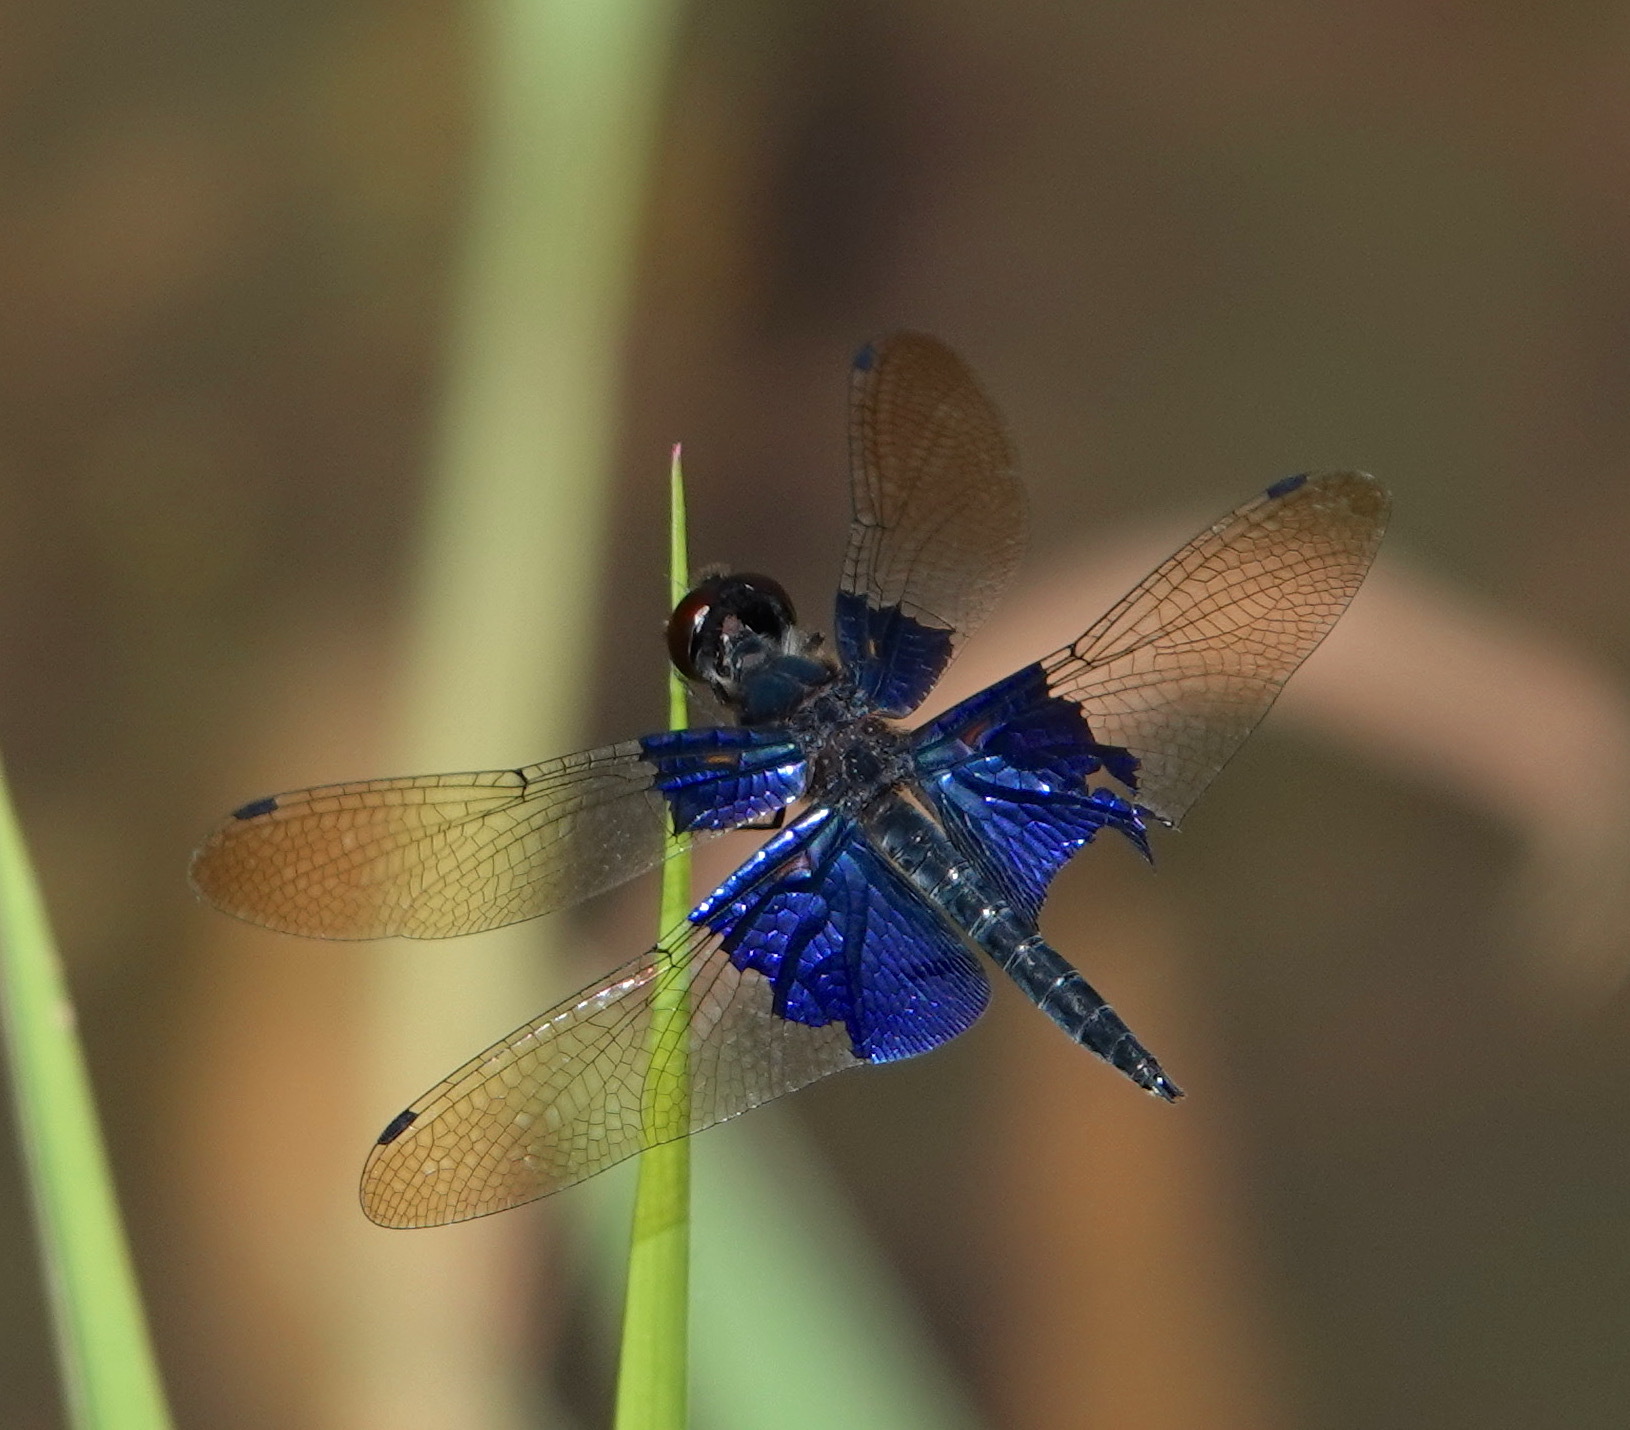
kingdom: Animalia
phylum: Arthropoda
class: Insecta
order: Odonata
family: Libellulidae
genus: Rhyothemis
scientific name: Rhyothemis triangularis
